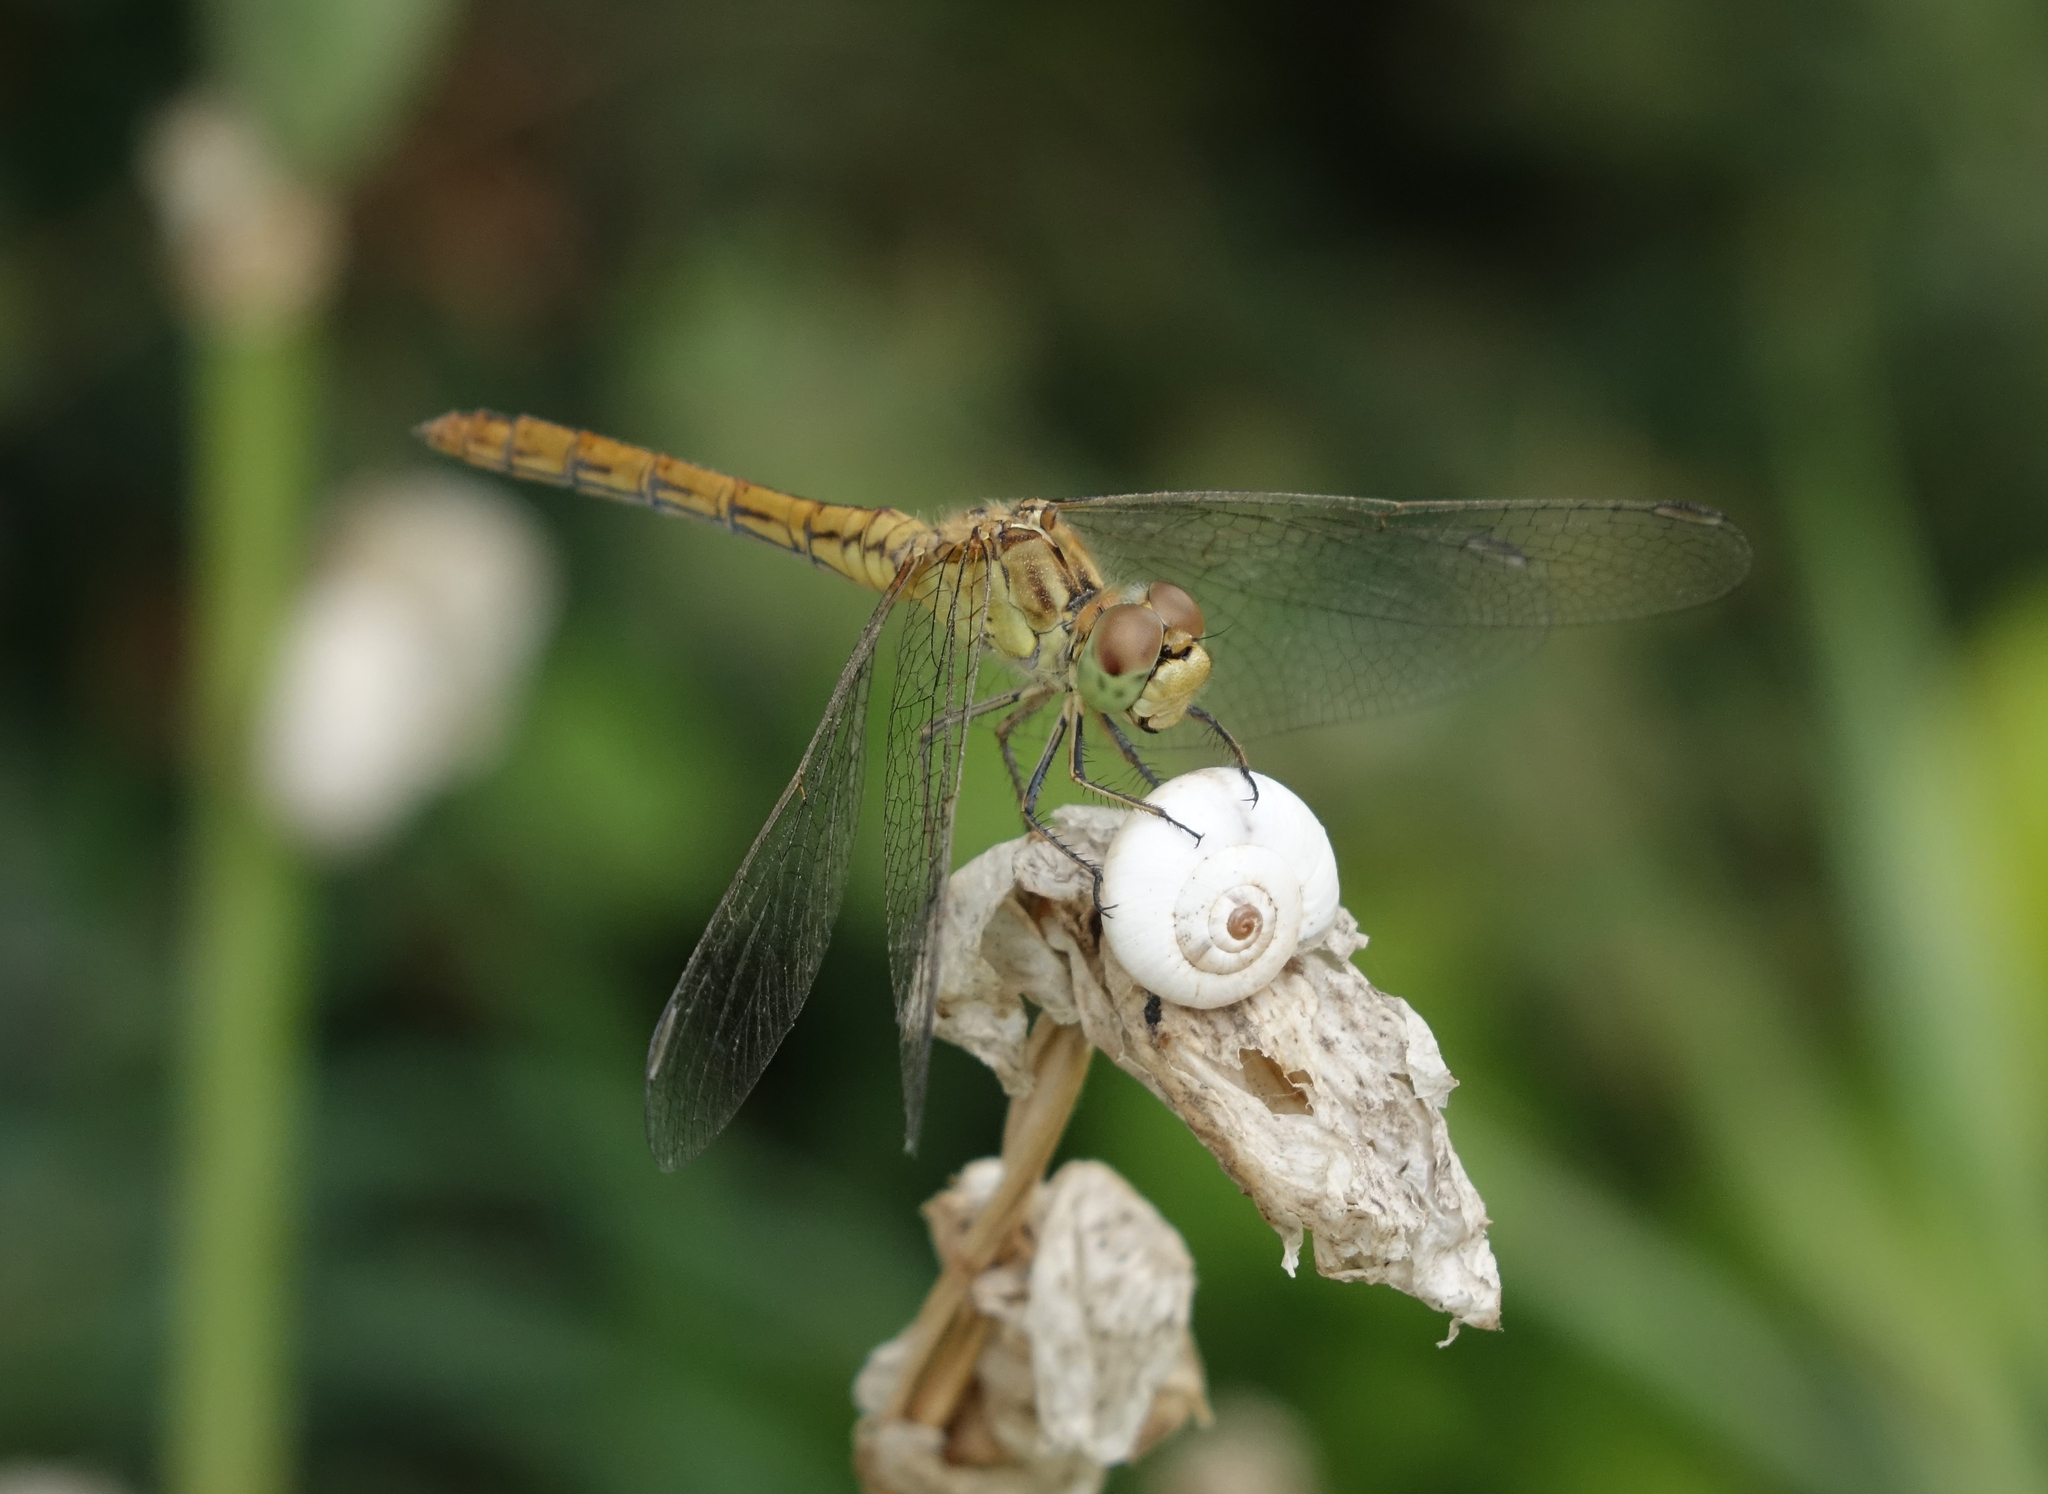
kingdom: Animalia
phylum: Mollusca
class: Gastropoda
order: Stylommatophora
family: Geomitridae
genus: Xeropicta
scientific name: Xeropicta derbentina
